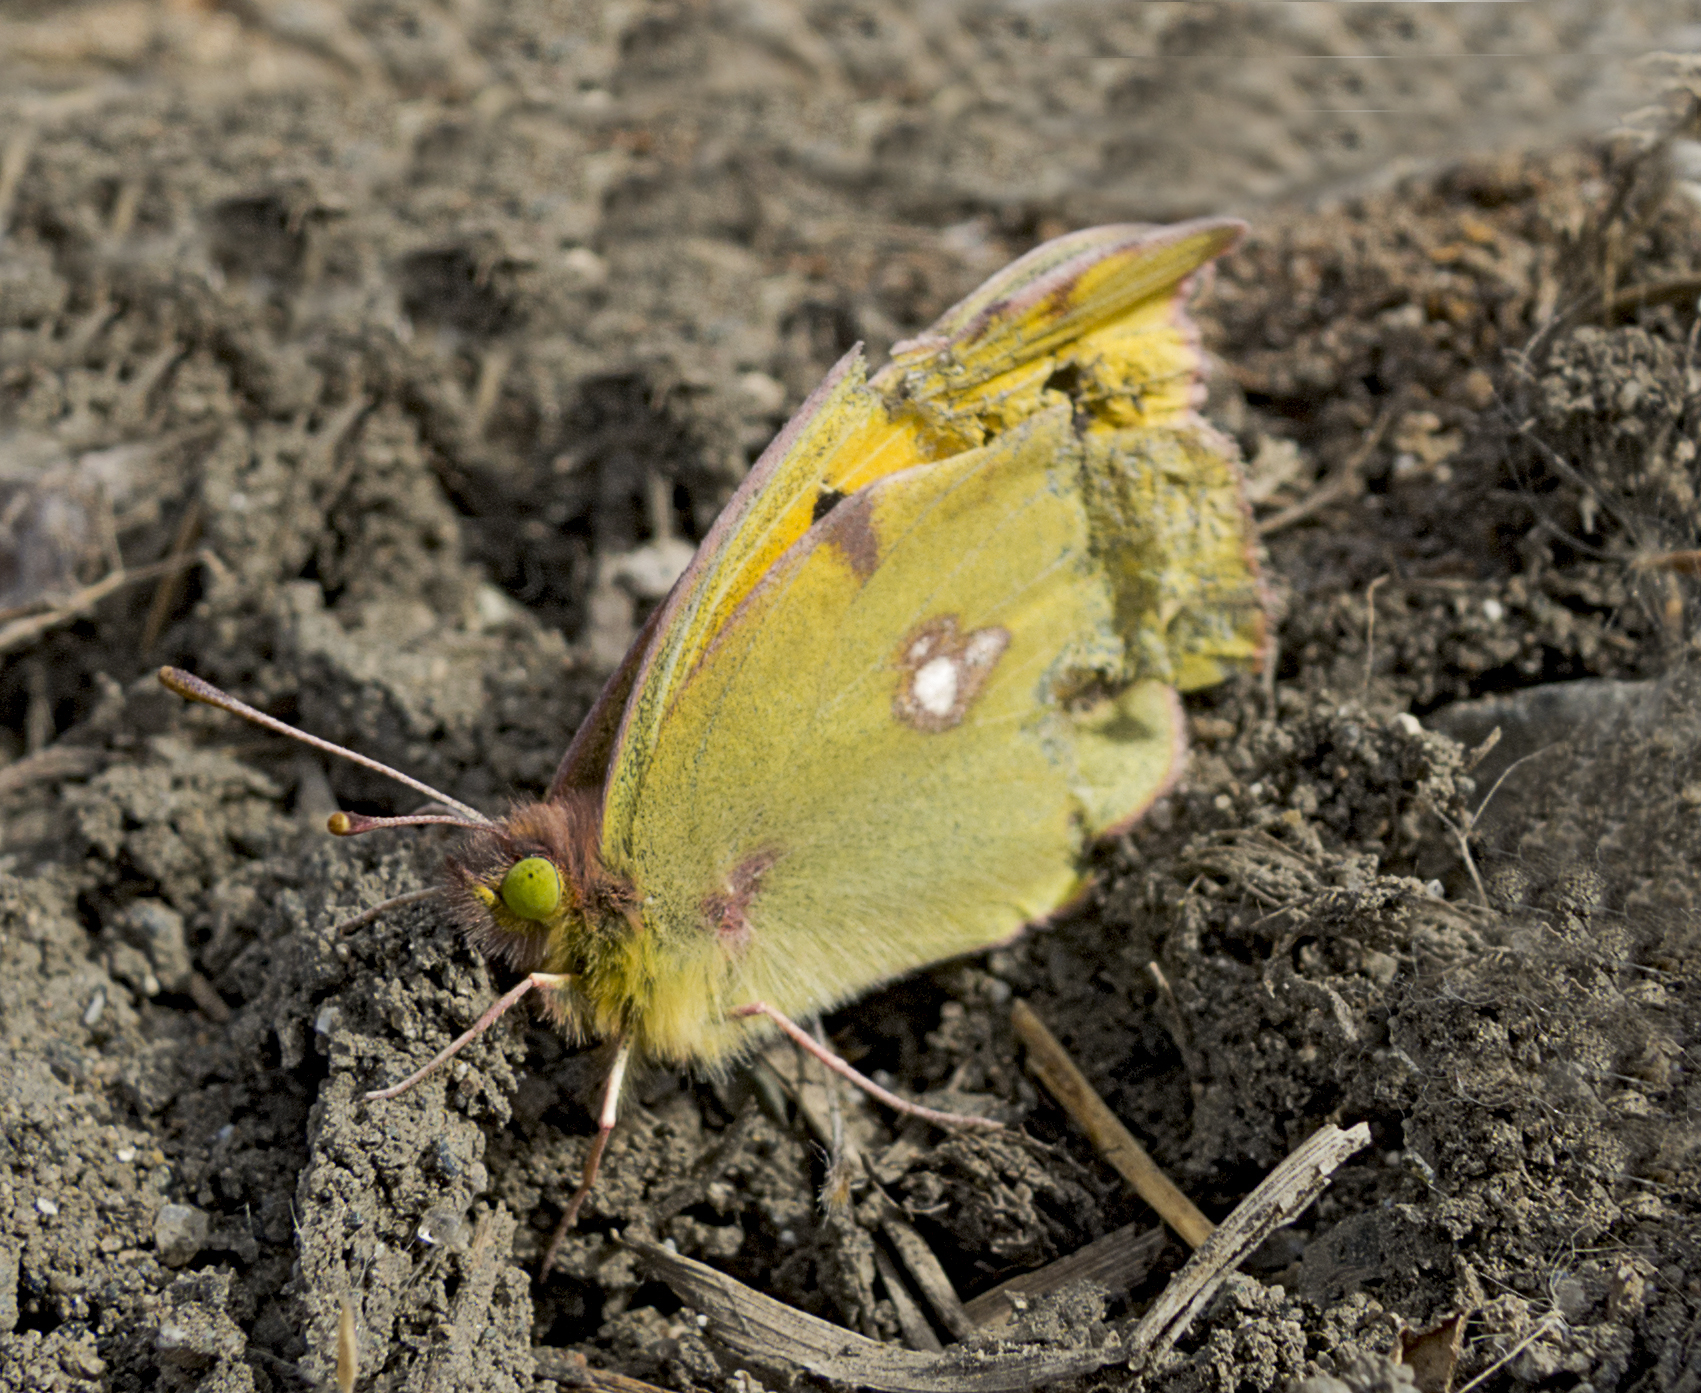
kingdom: Animalia
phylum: Arthropoda
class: Insecta
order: Lepidoptera
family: Pieridae
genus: Colias
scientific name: Colias
